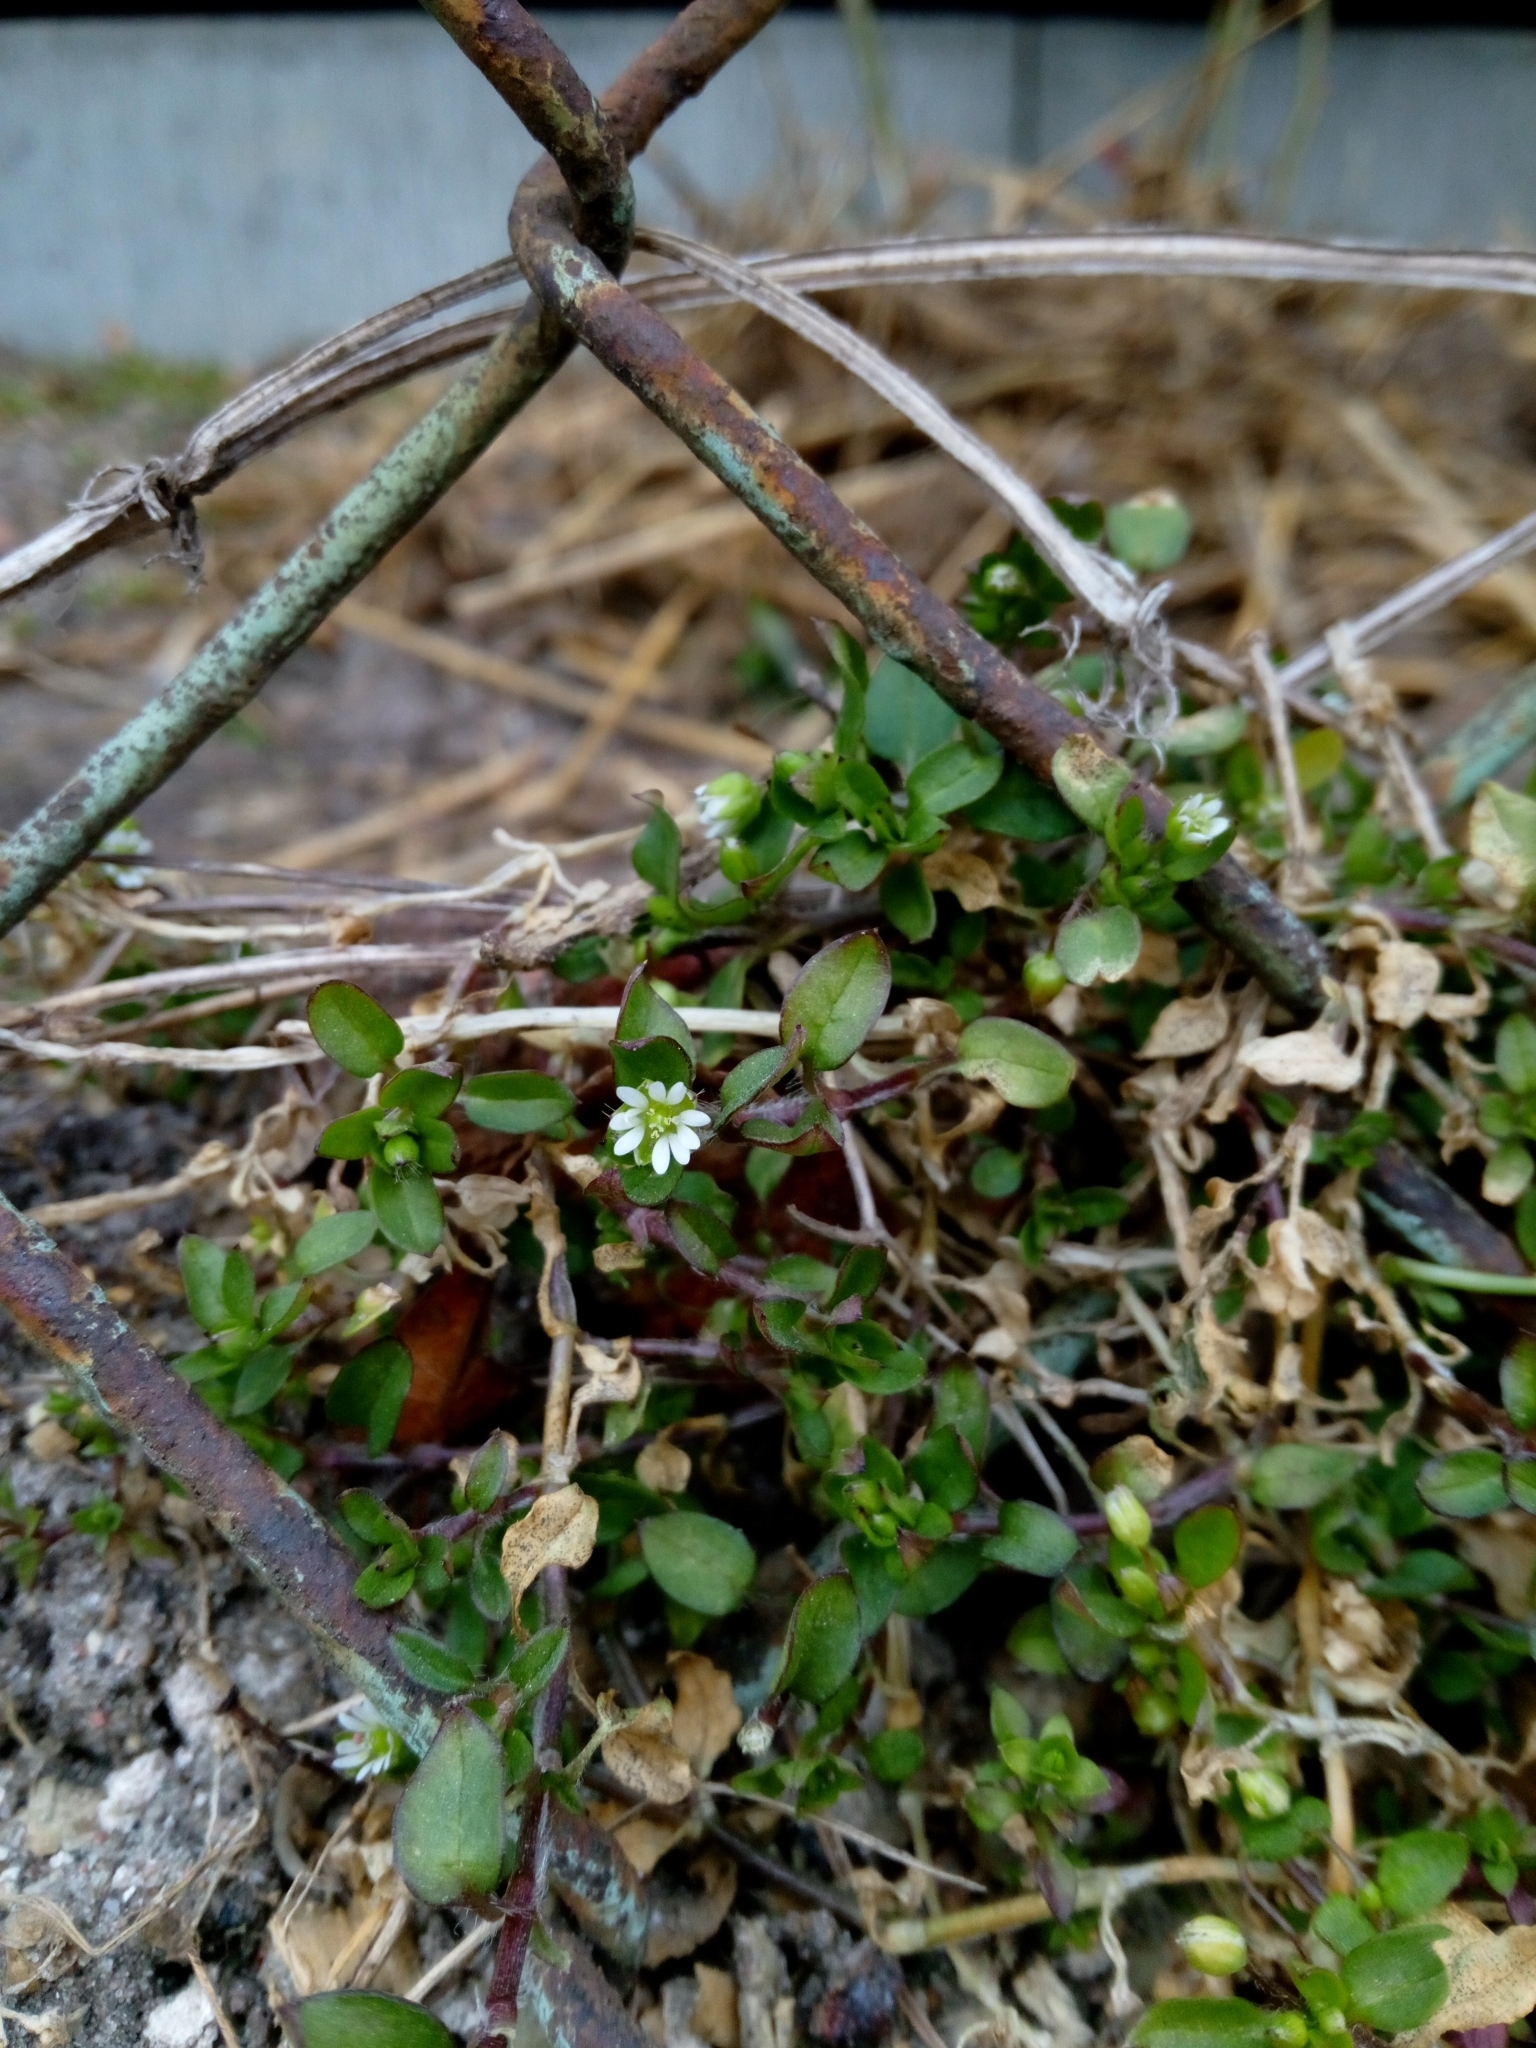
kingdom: Plantae
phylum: Tracheophyta
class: Magnoliopsida
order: Caryophyllales
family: Caryophyllaceae
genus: Stellaria
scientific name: Stellaria media
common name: Common chickweed
